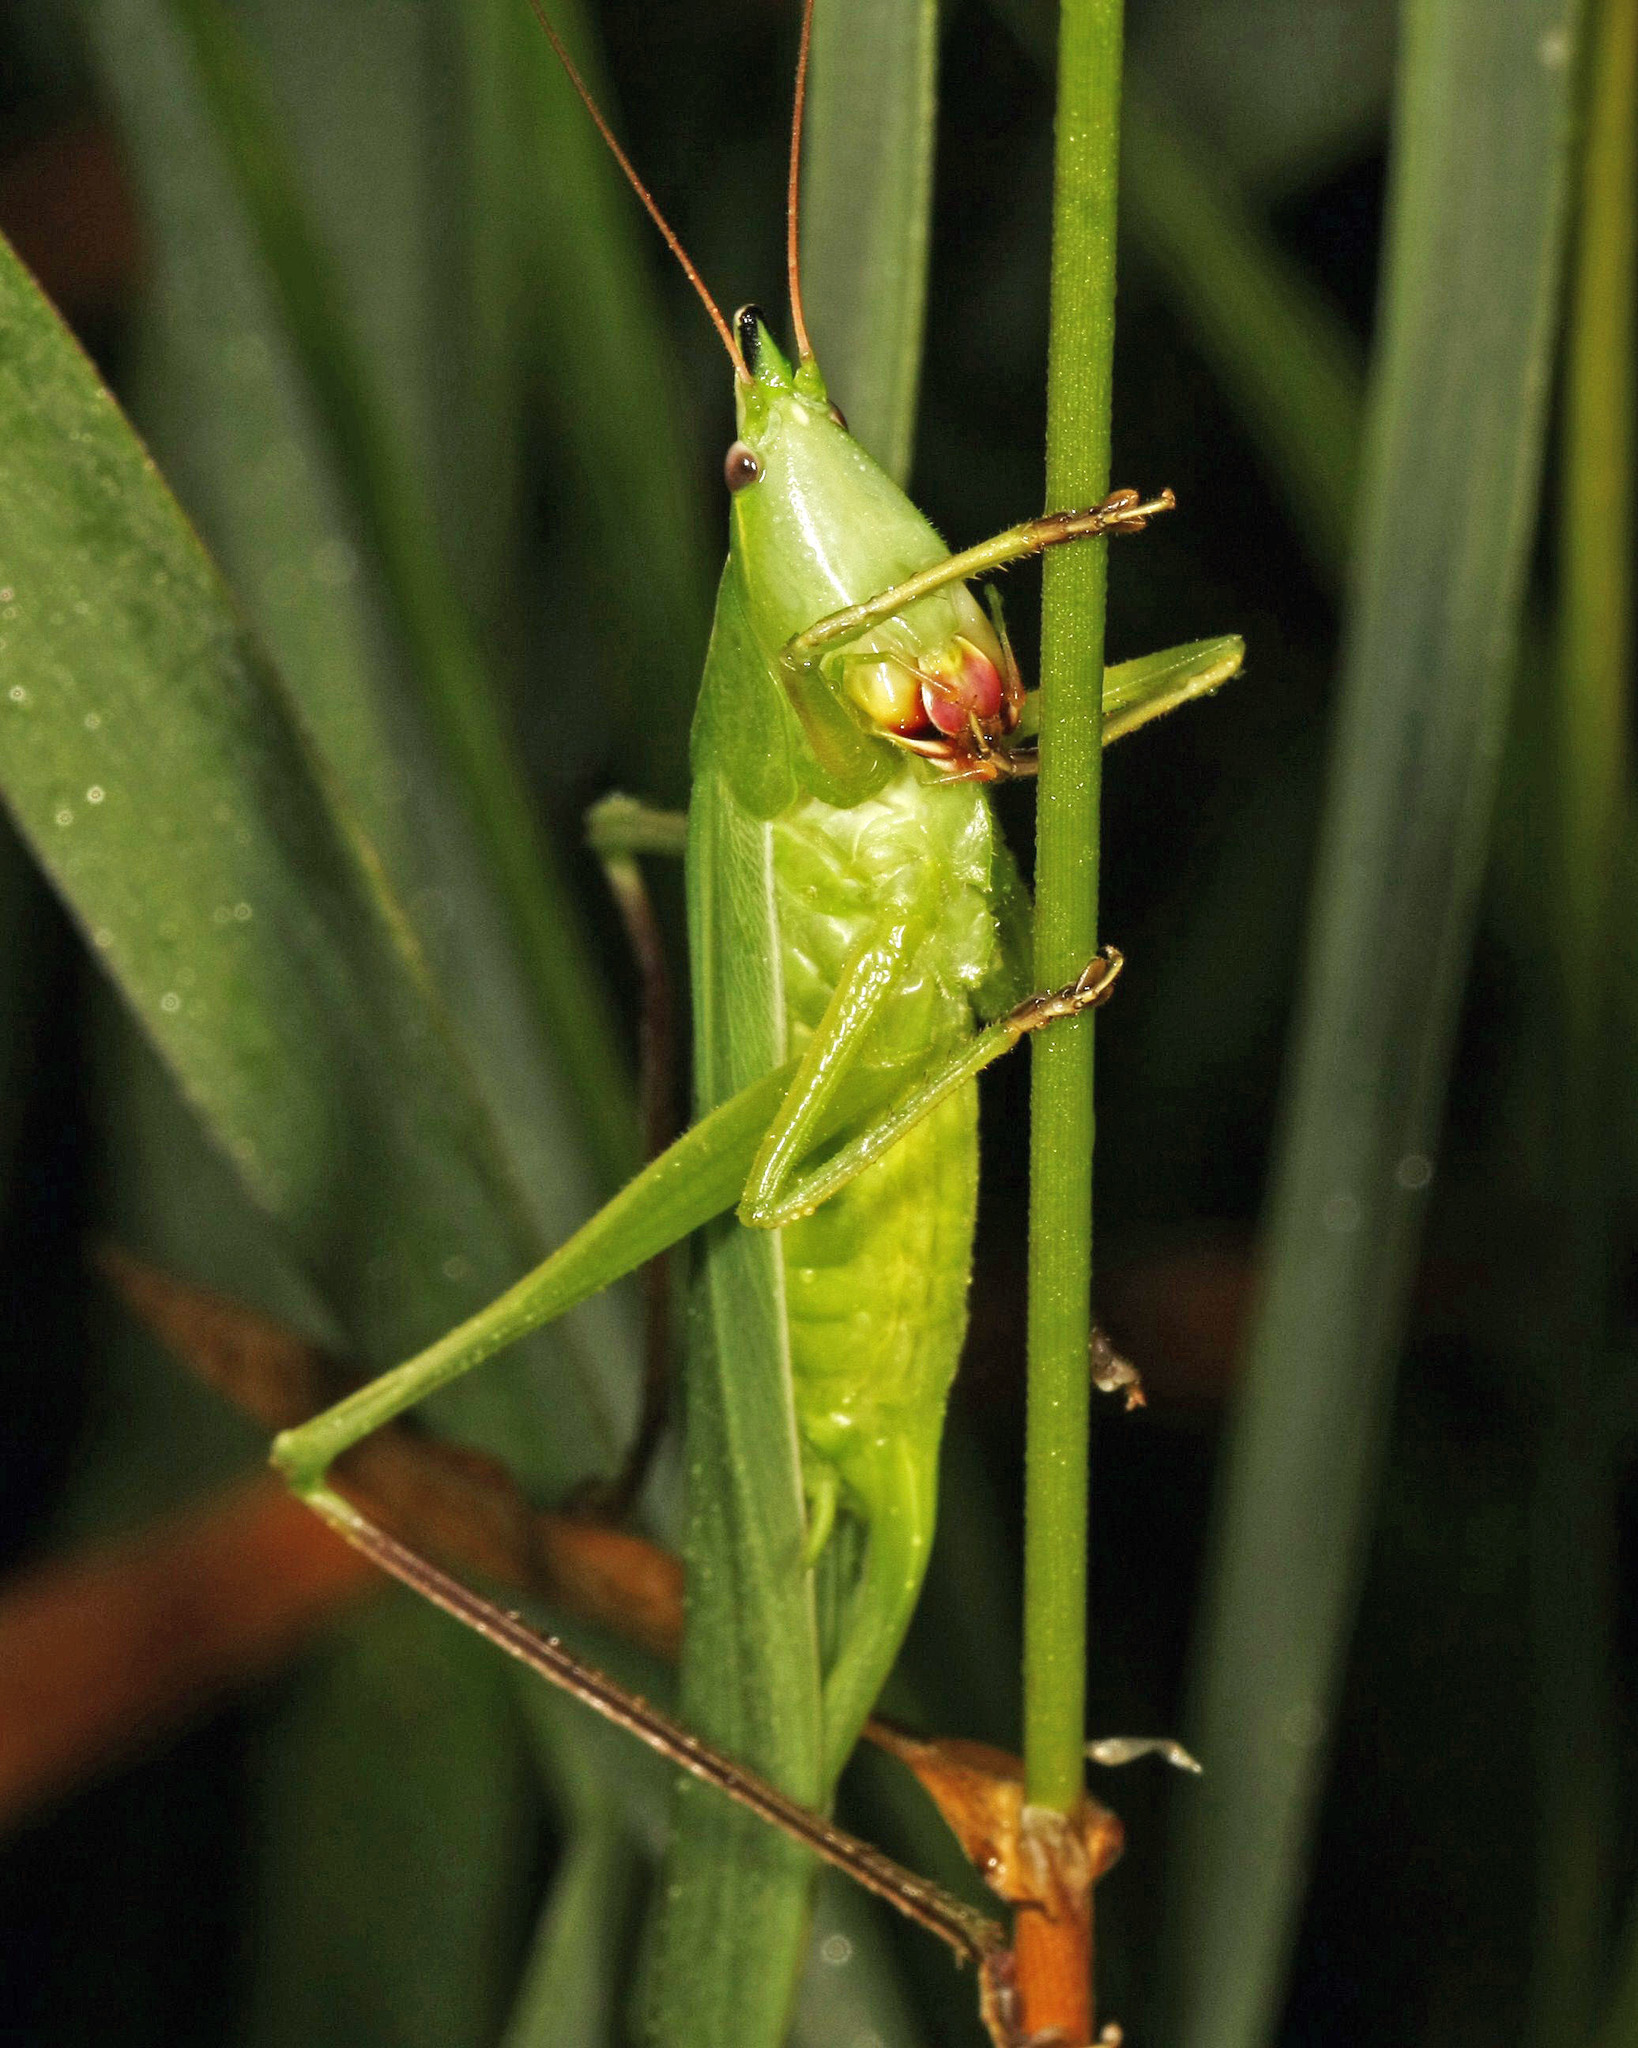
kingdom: Animalia
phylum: Arthropoda
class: Insecta
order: Orthoptera
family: Tettigoniidae
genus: Neoconocephalus
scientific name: Neoconocephalus ensiger
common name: Swordbearer
